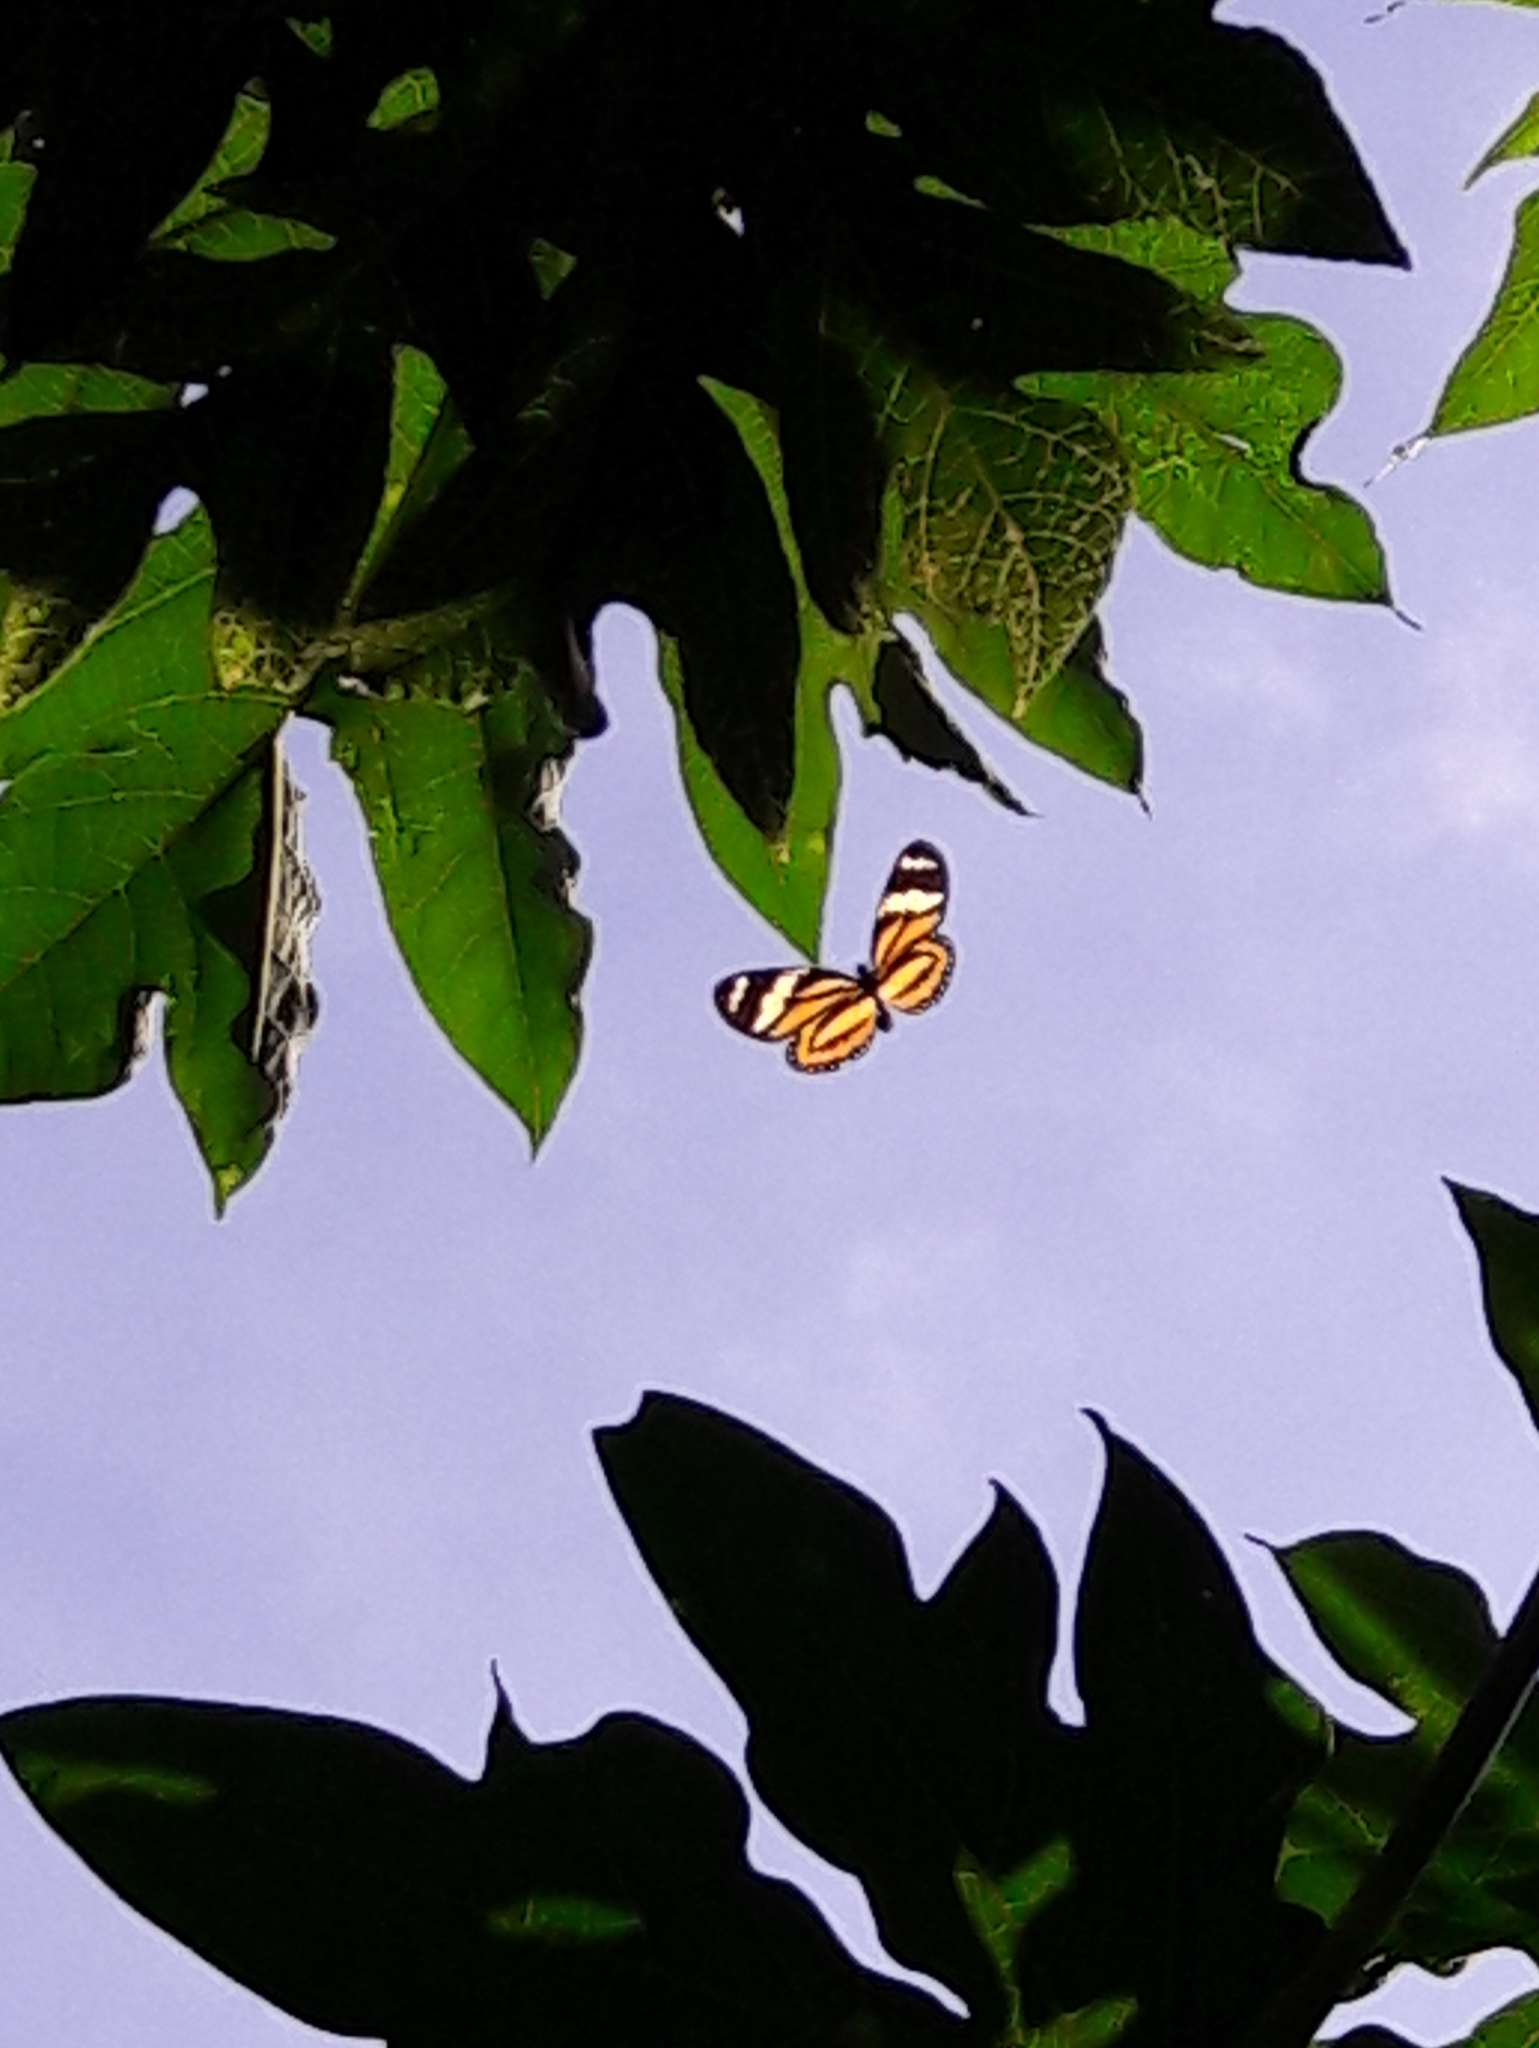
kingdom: Animalia
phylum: Arthropoda
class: Insecta
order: Lepidoptera
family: Nymphalidae
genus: Lycorea
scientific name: Lycorea cleobaea
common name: Tiger mimic-queen
